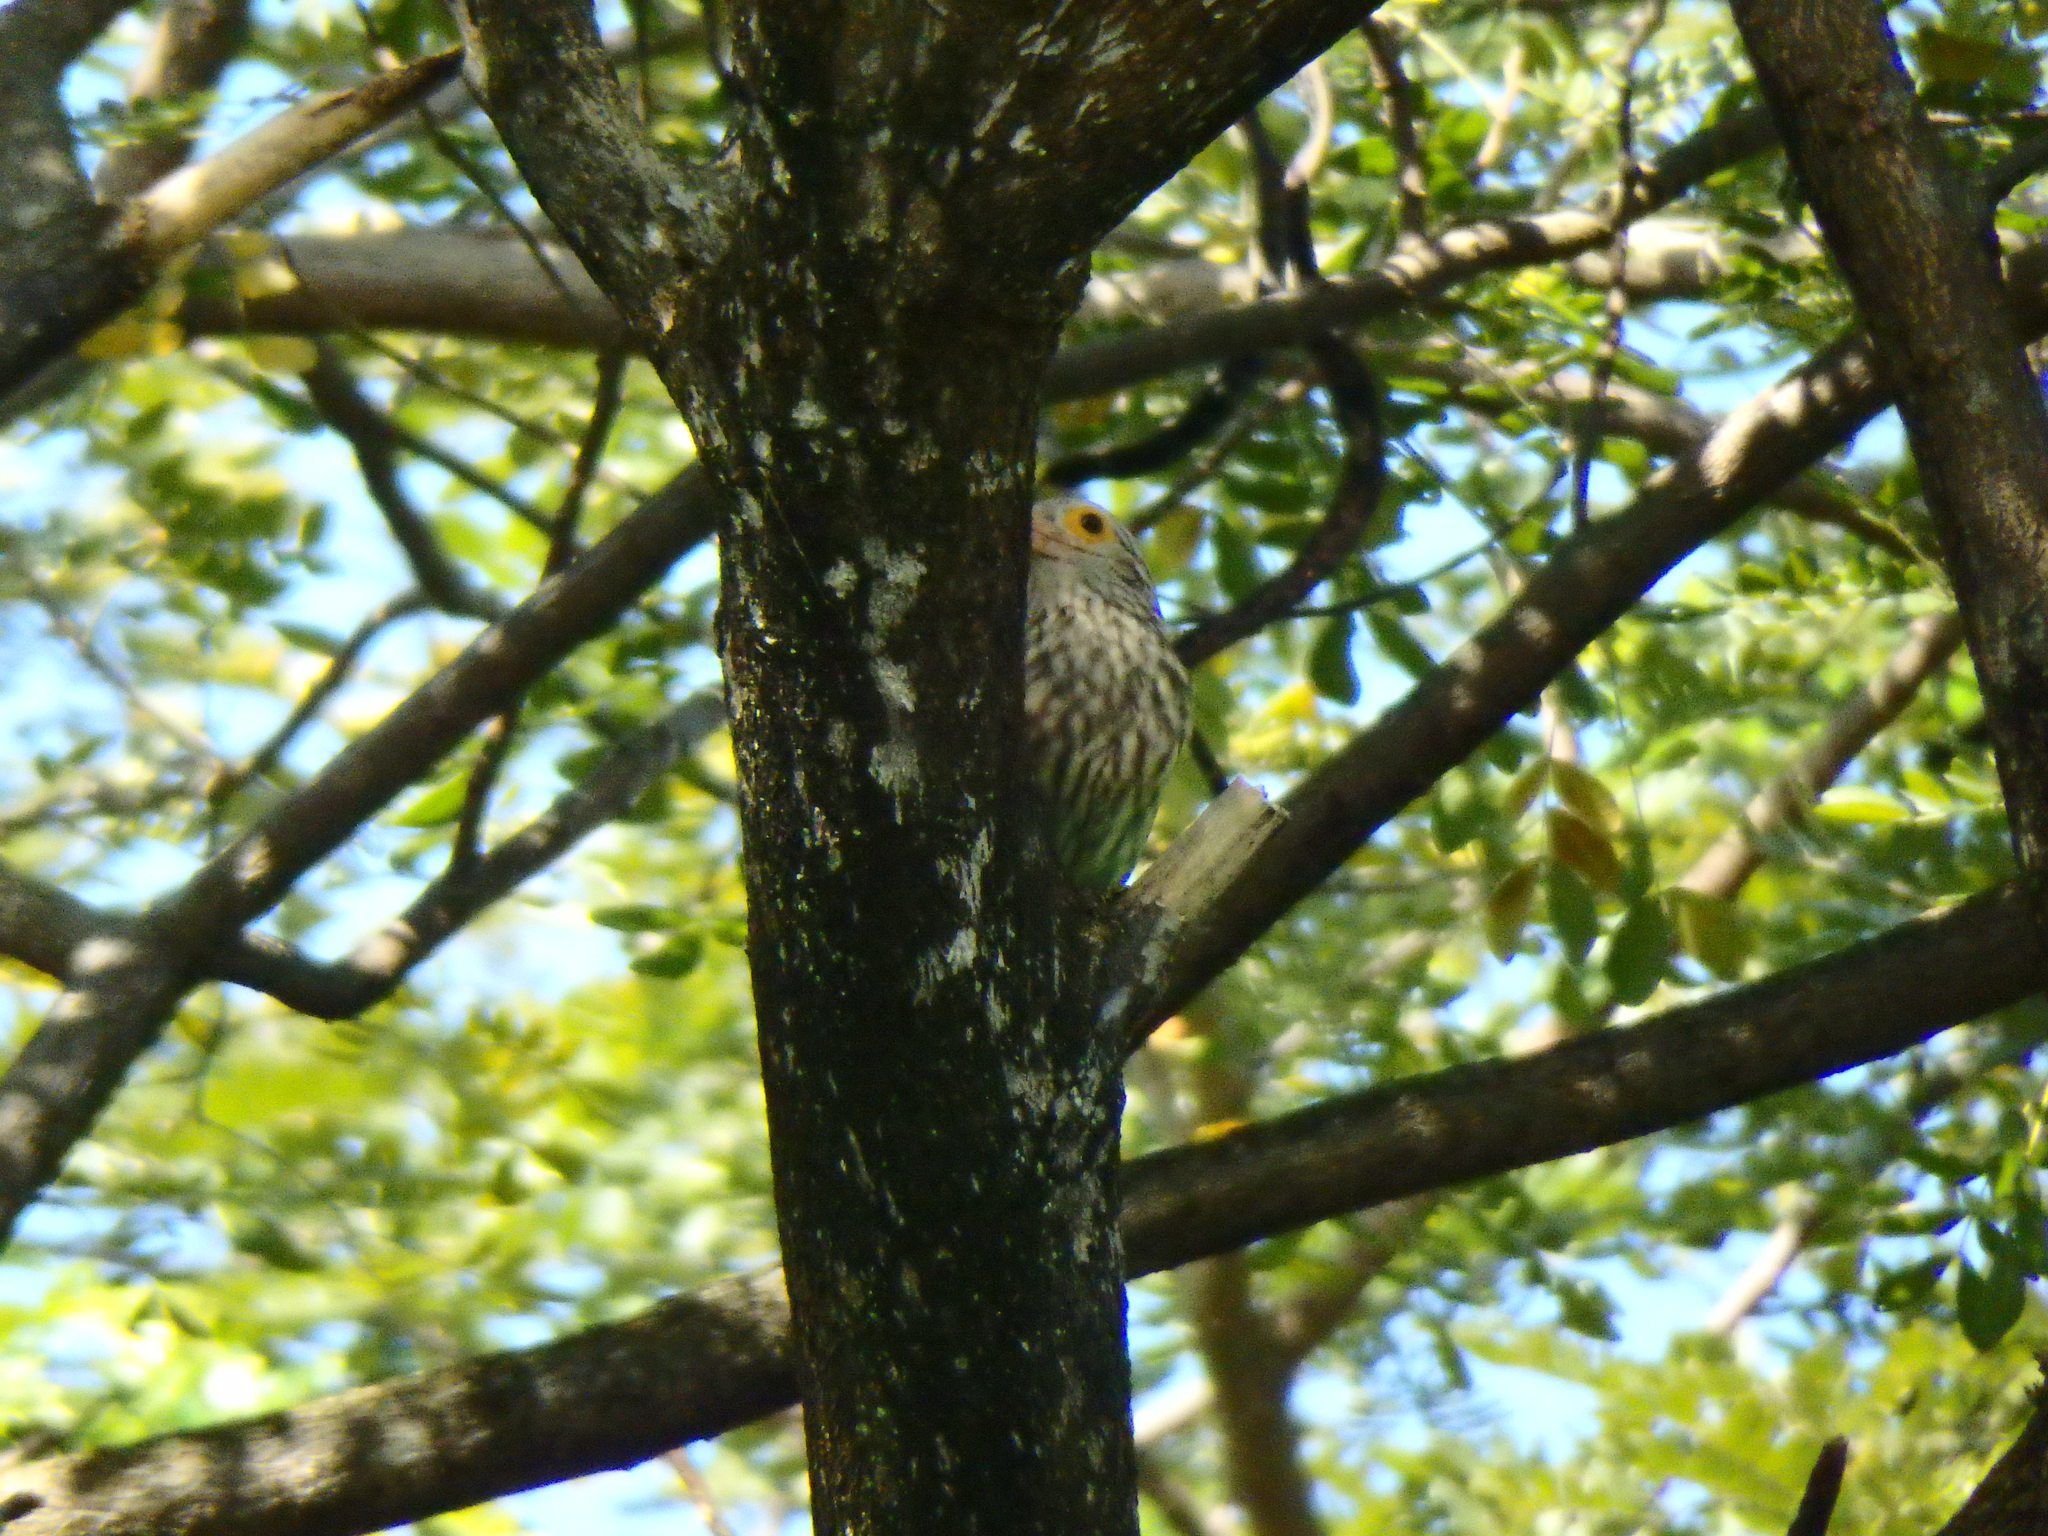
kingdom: Animalia
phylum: Chordata
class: Aves
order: Piciformes
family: Megalaimidae
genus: Psilopogon
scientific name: Psilopogon lineatus
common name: Lineated barbet
